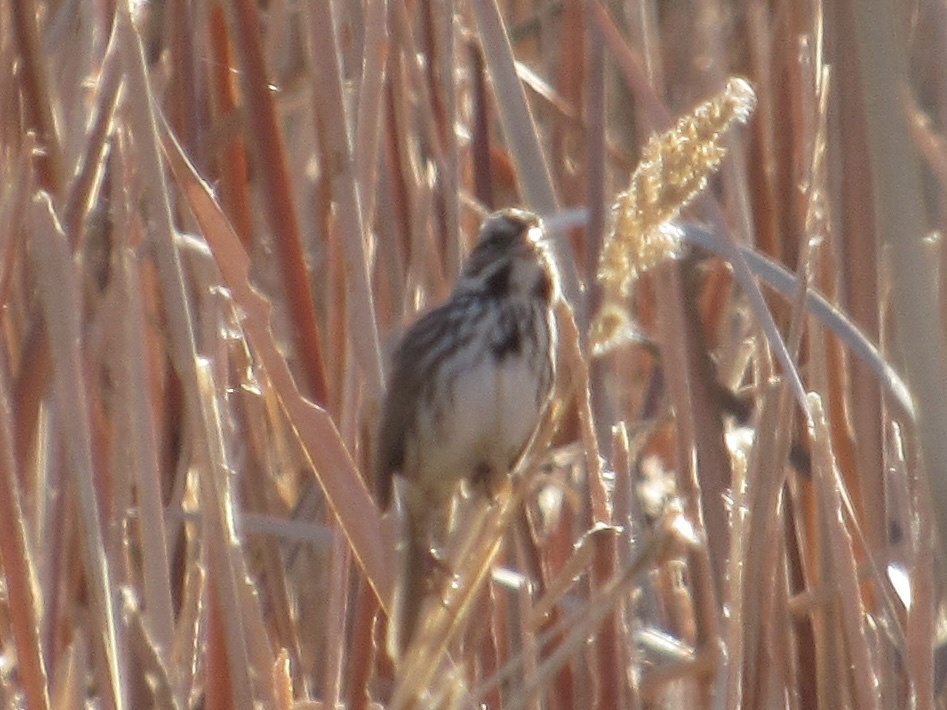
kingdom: Animalia
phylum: Chordata
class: Aves
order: Passeriformes
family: Passerellidae
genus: Melospiza
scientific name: Melospiza melodia
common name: Song sparrow
